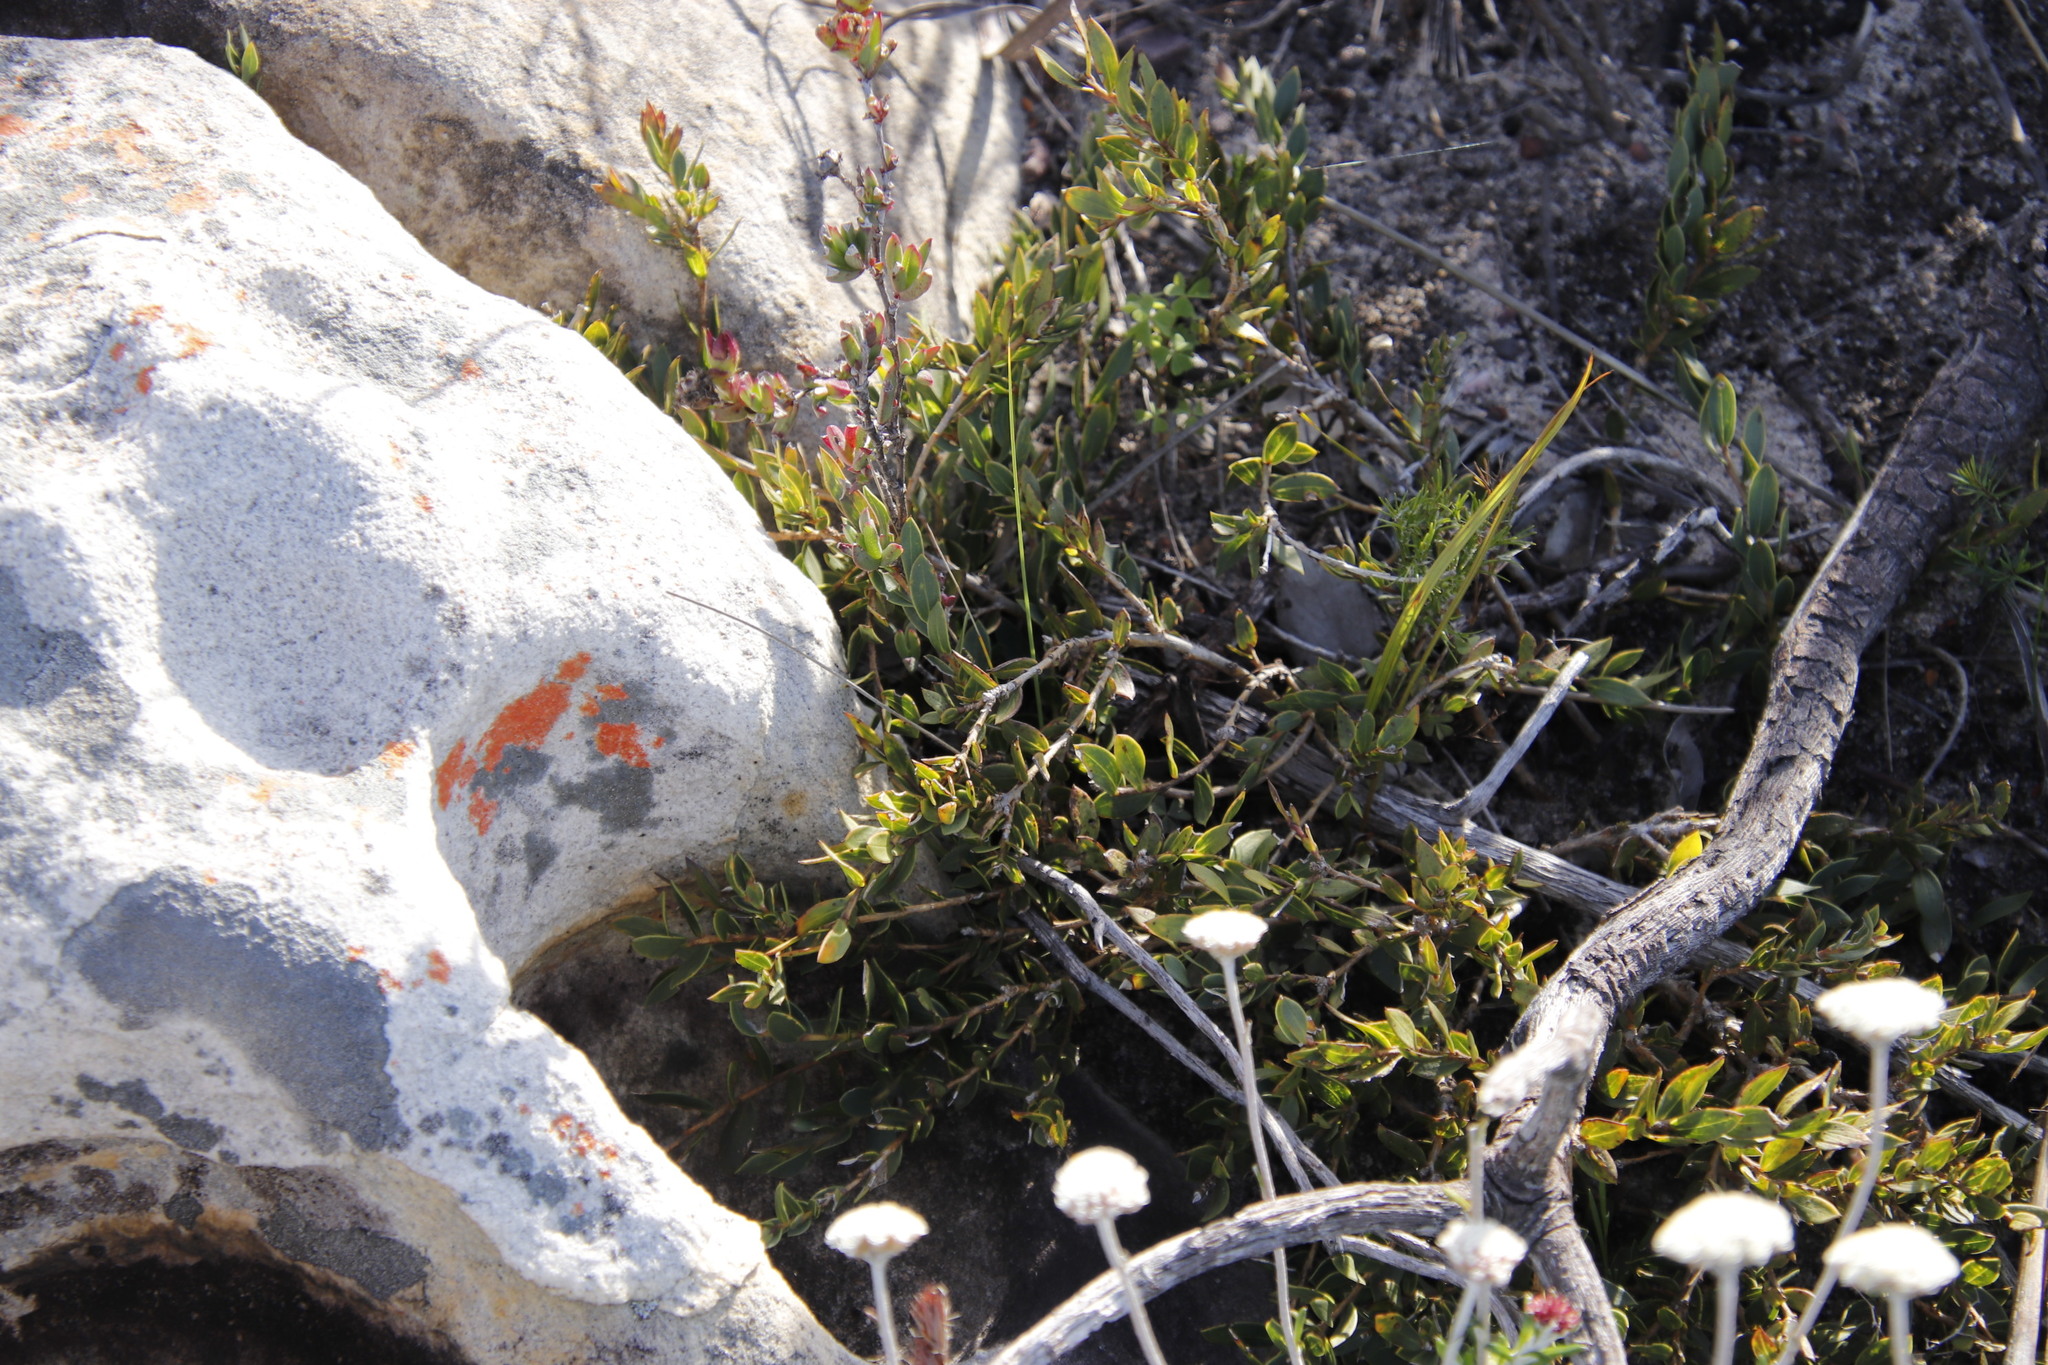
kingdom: Plantae
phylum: Tracheophyta
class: Magnoliopsida
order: Fabales
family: Fabaceae
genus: Liparia
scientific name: Liparia parva
